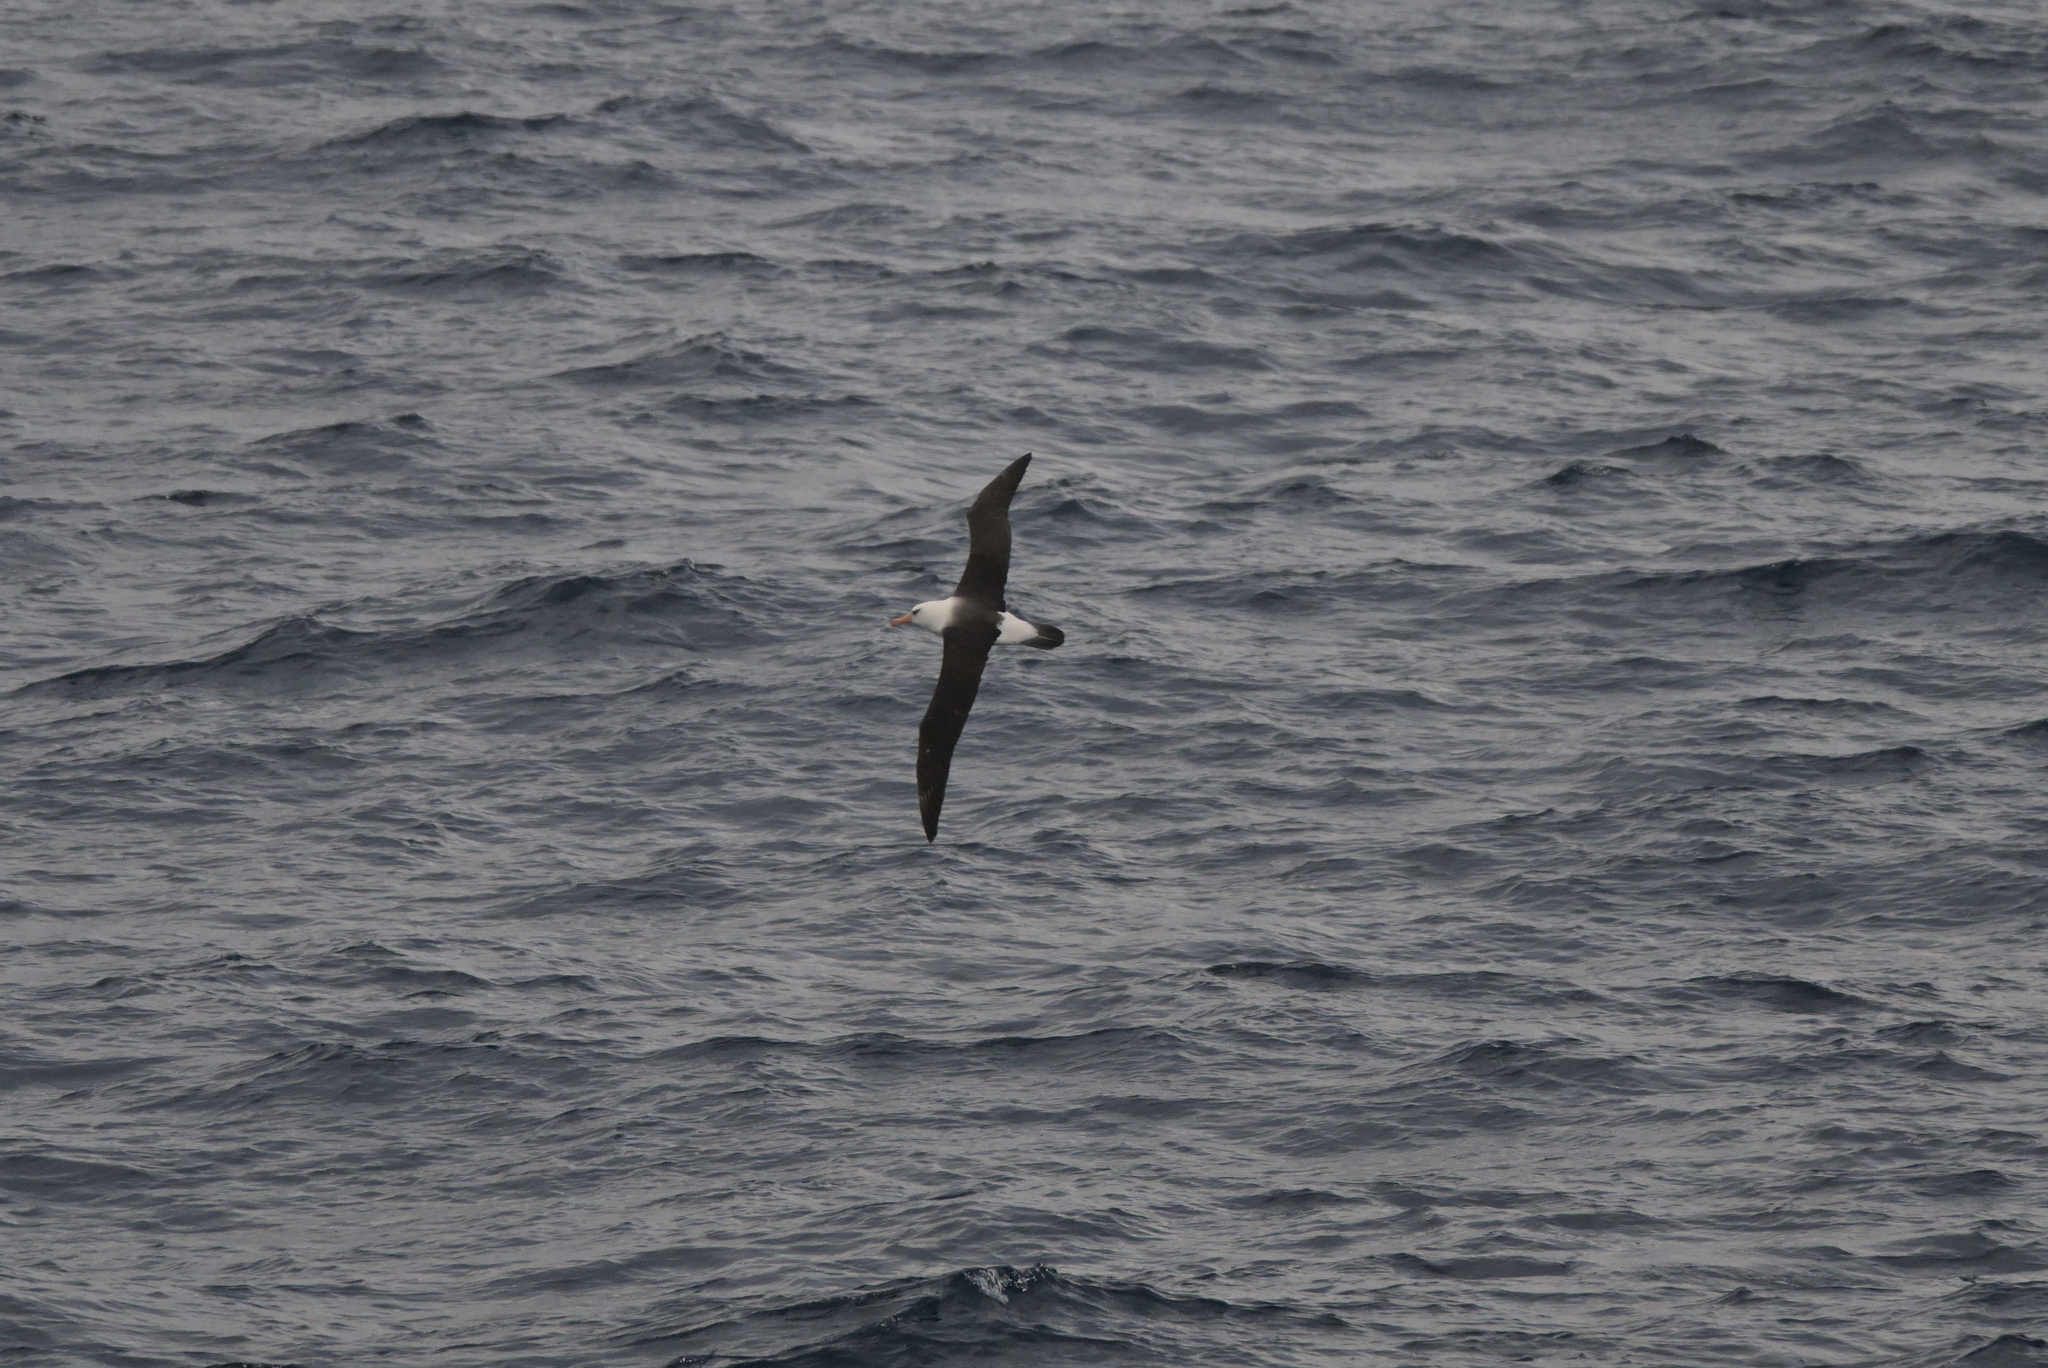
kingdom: Animalia
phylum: Chordata
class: Aves
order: Procellariiformes
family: Diomedeidae
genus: Thalassarche
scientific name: Thalassarche impavida
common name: Campbell albatross
